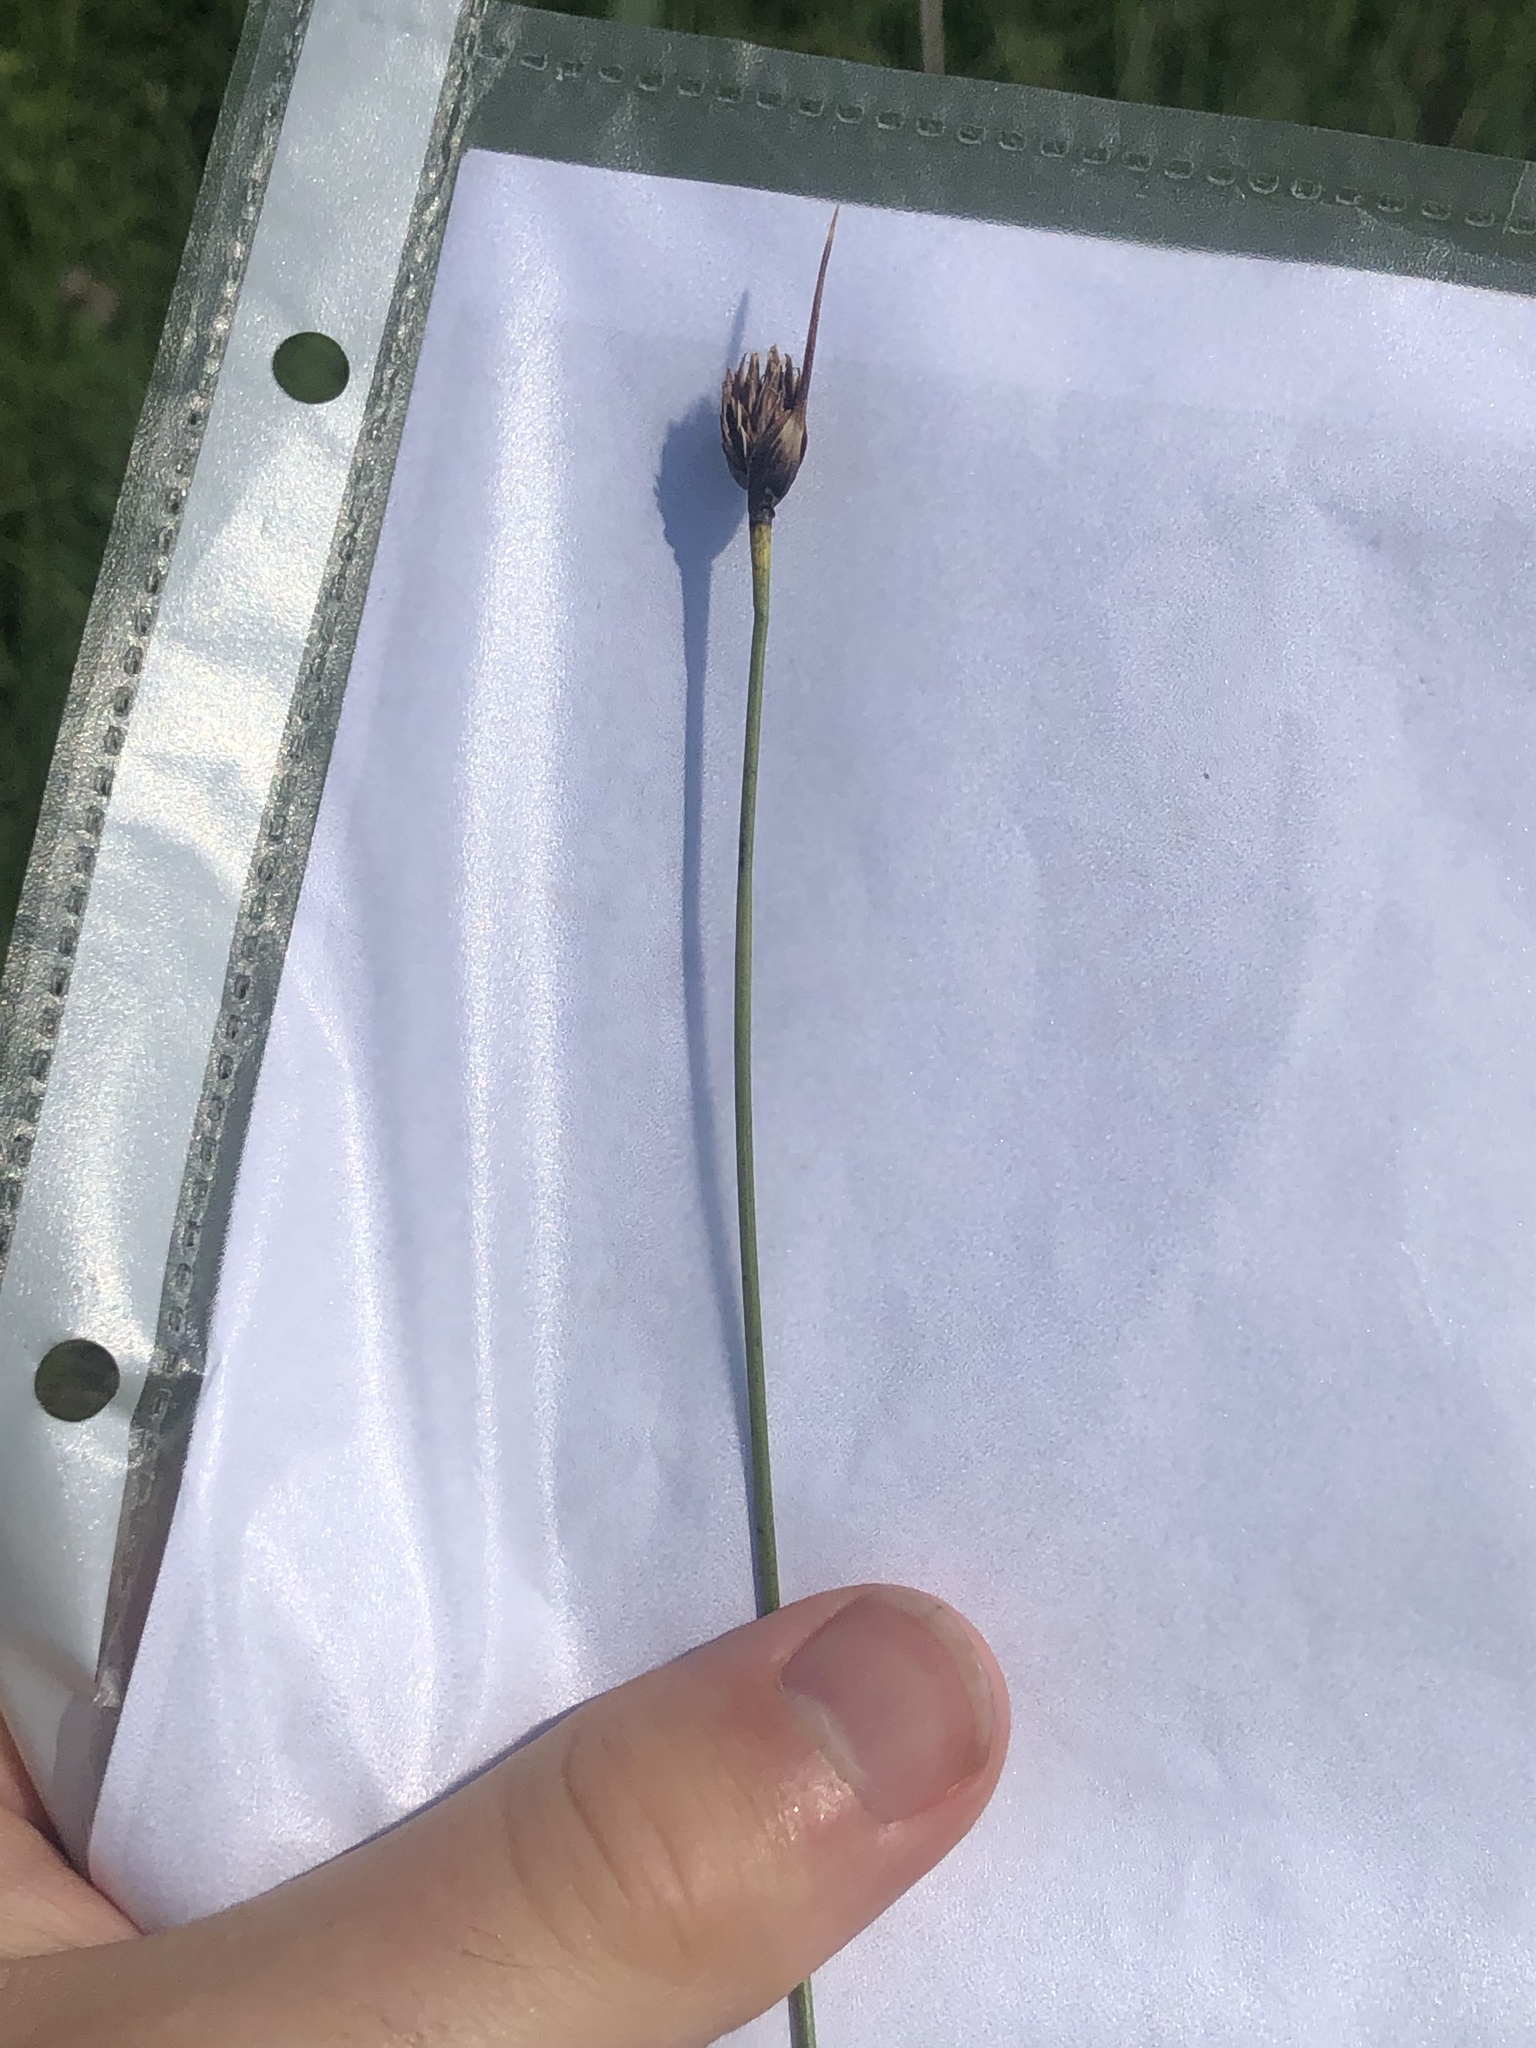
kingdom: Plantae
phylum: Tracheophyta
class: Liliopsida
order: Poales
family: Cyperaceae
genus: Schoenus
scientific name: Schoenus nigricans
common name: Black bog-rush
